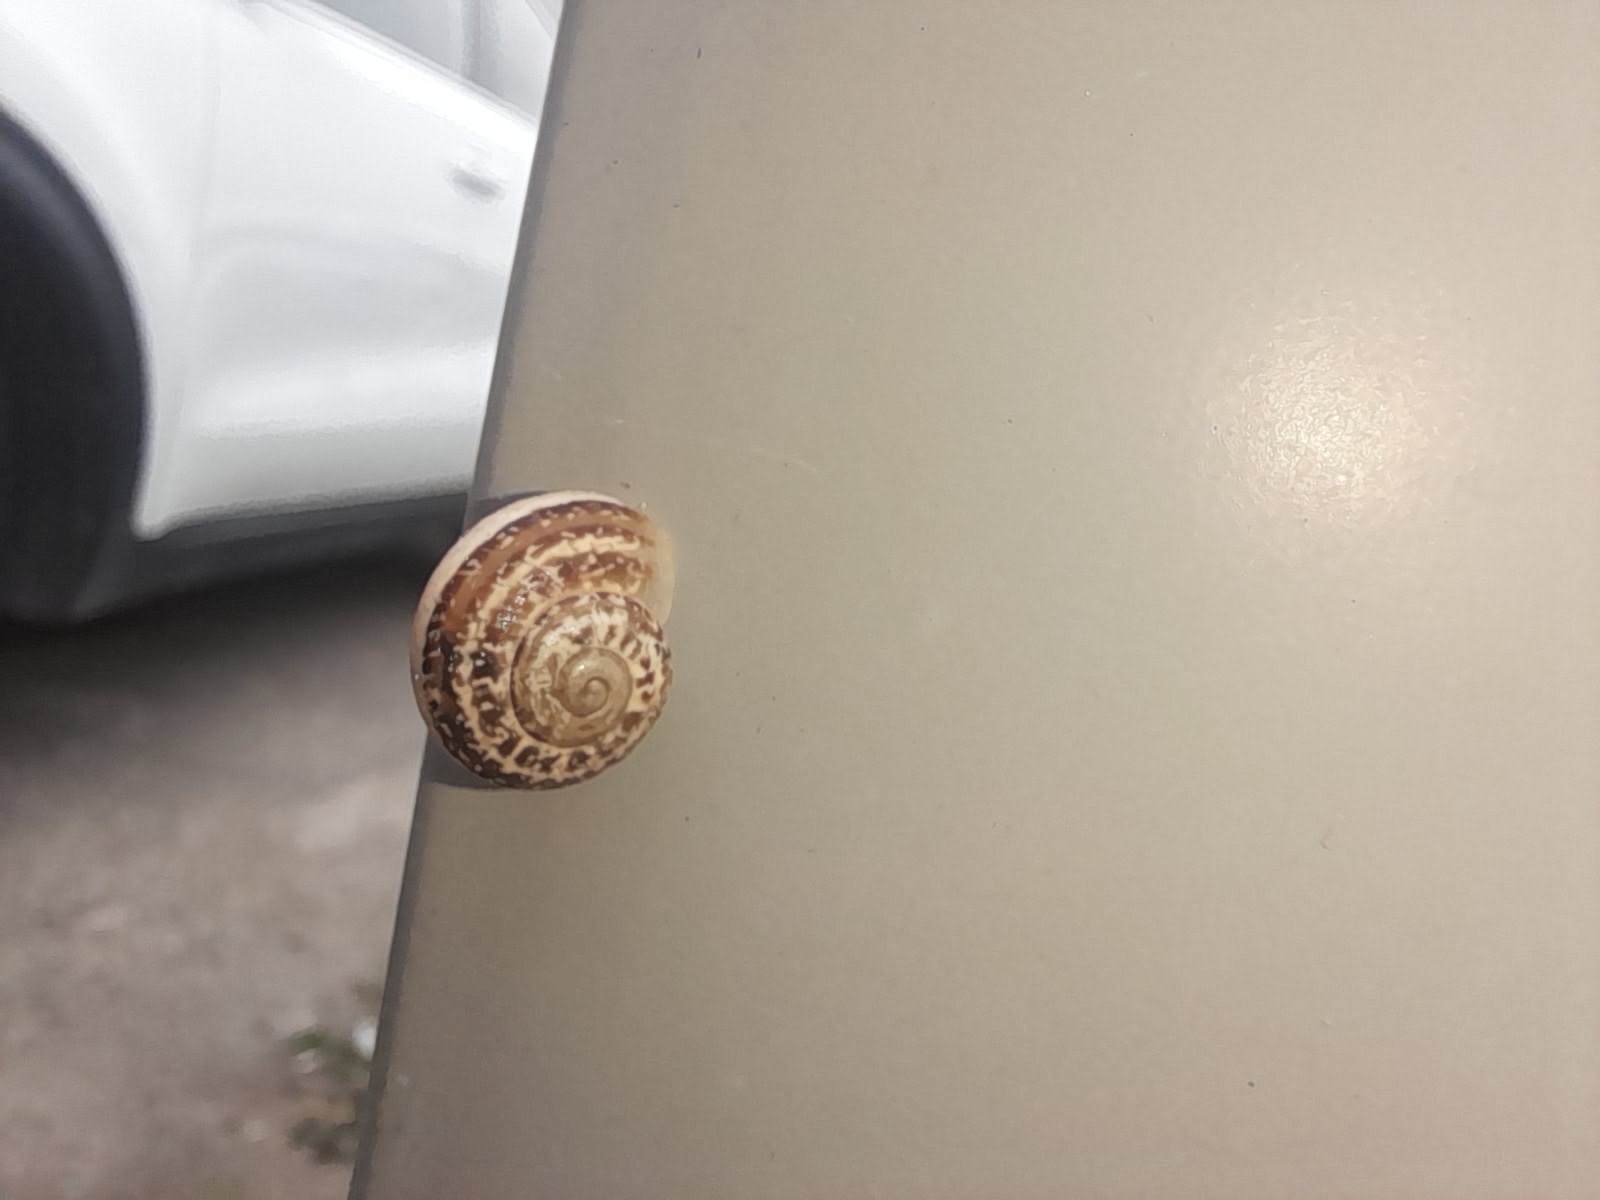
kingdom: Animalia
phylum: Mollusca
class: Gastropoda
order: Stylommatophora
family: Helicidae
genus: Eobania
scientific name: Eobania vermiculata
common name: Chocolateband snail
